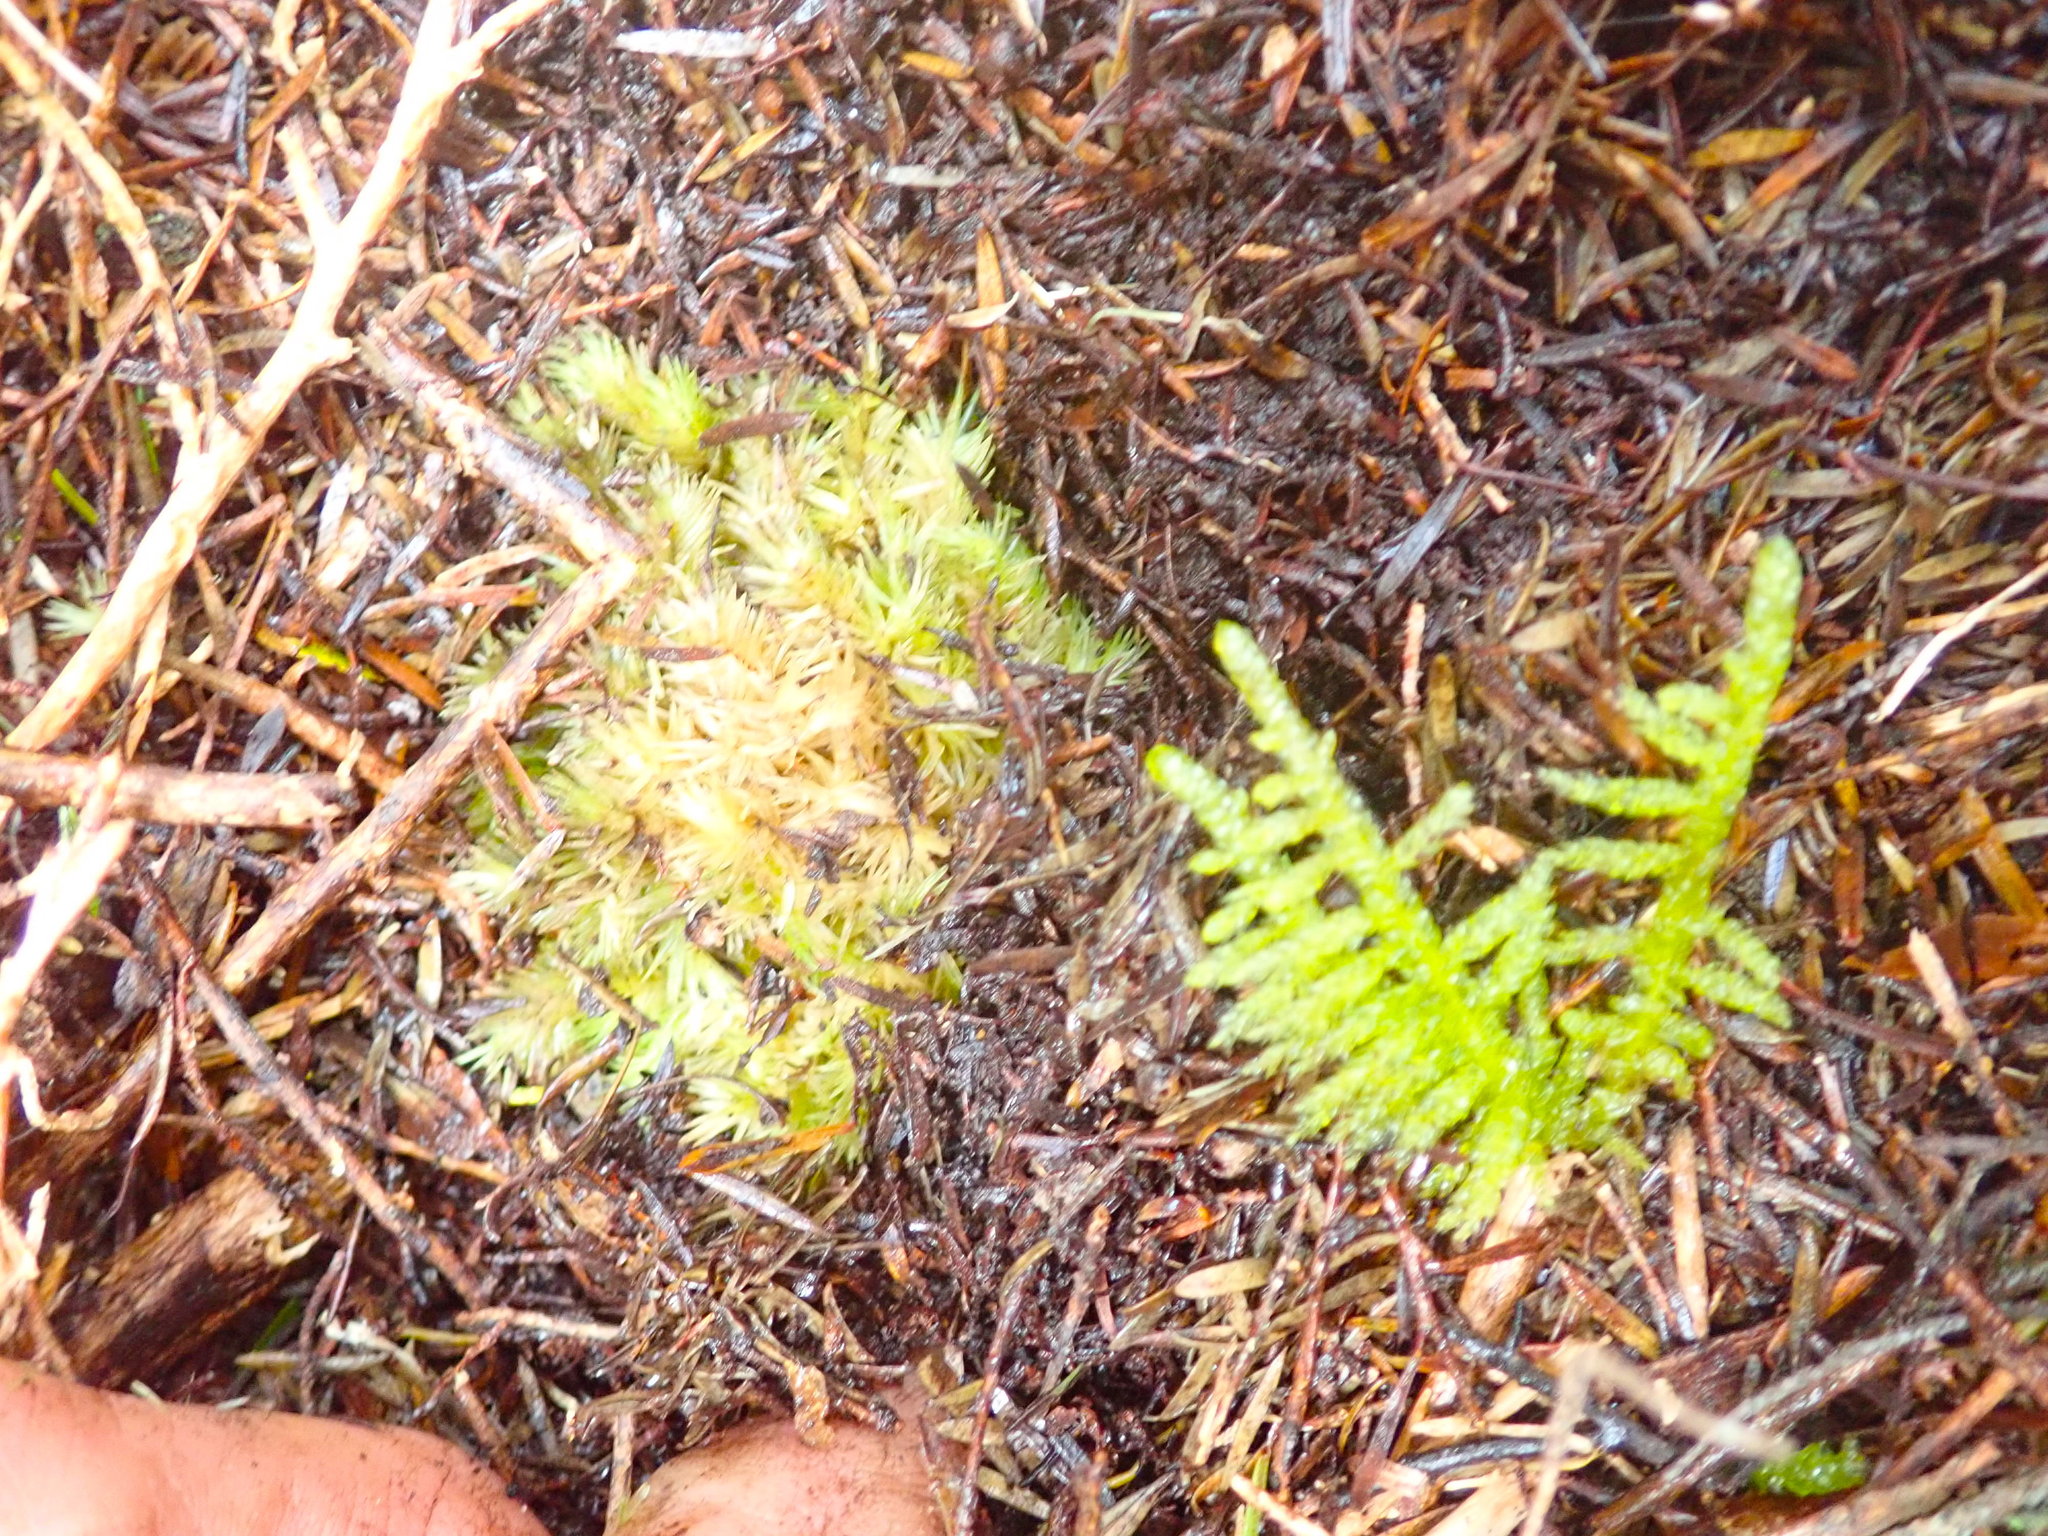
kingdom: Plantae
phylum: Bryophyta
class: Bryopsida
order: Dicranales
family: Leucobryaceae
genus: Leucobryum
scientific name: Leucobryum javense
